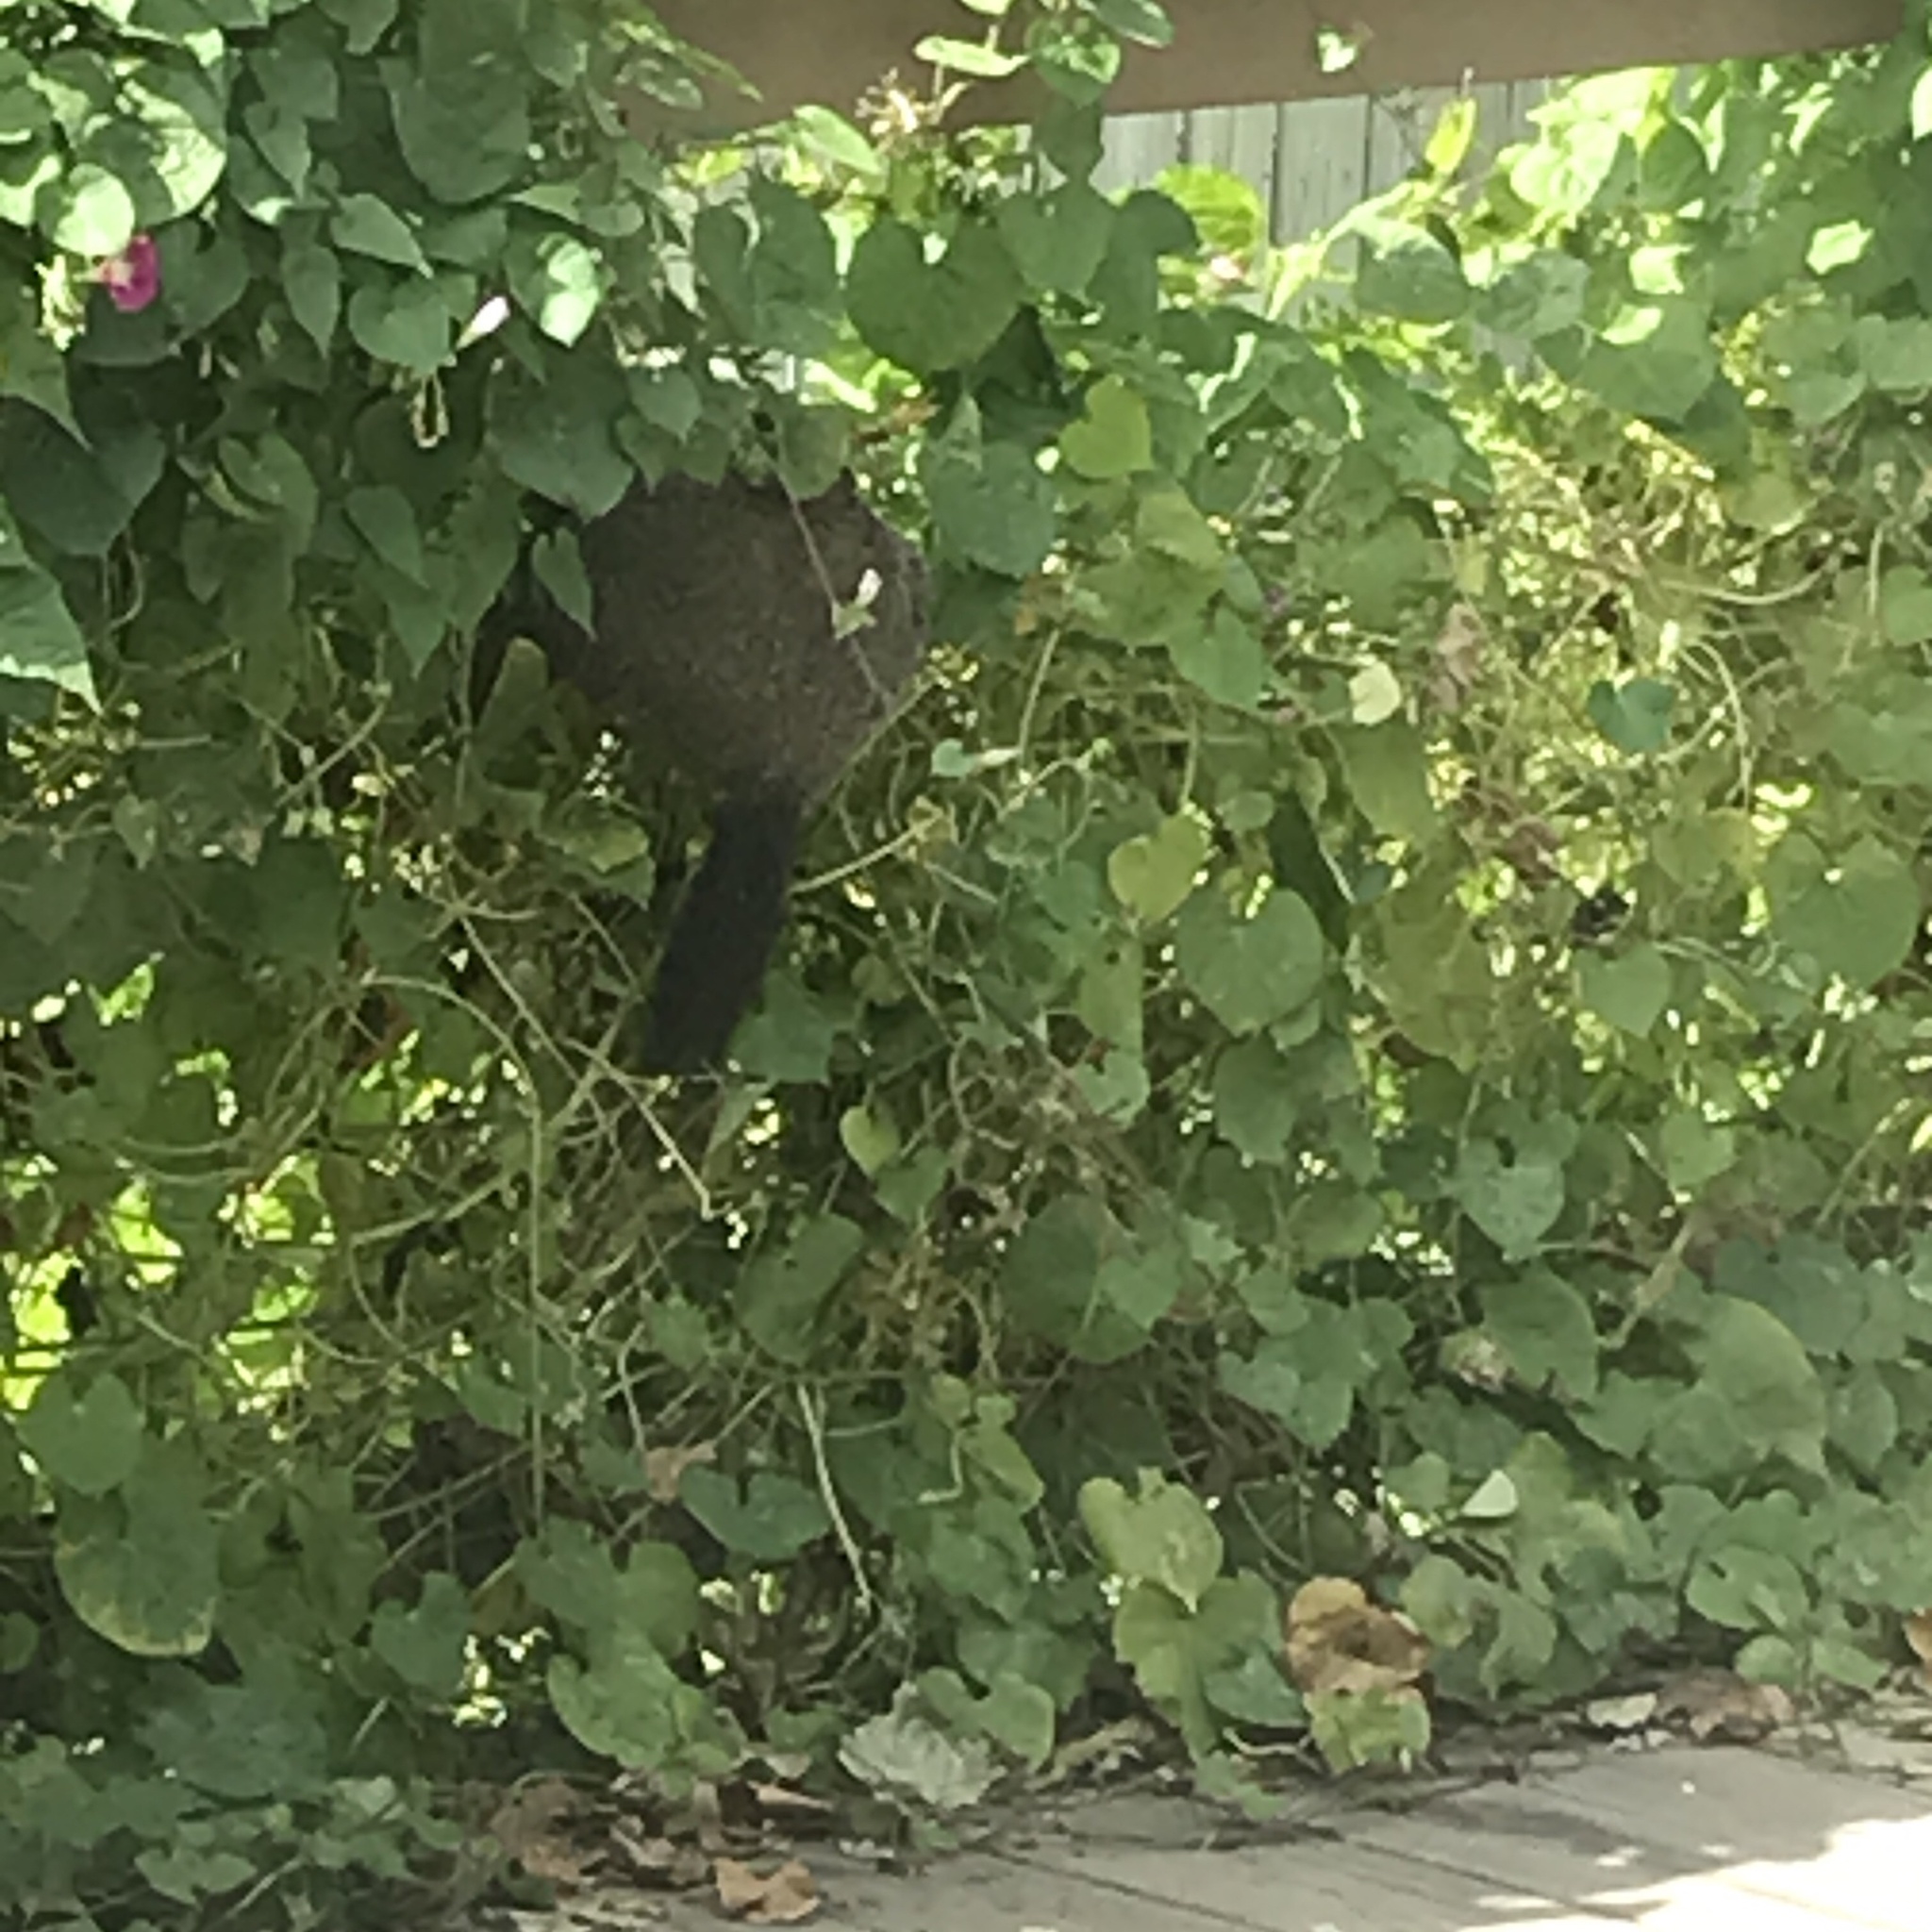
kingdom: Animalia
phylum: Chordata
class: Mammalia
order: Rodentia
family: Sciuridae
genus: Marmota
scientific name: Marmota monax
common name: Groundhog
